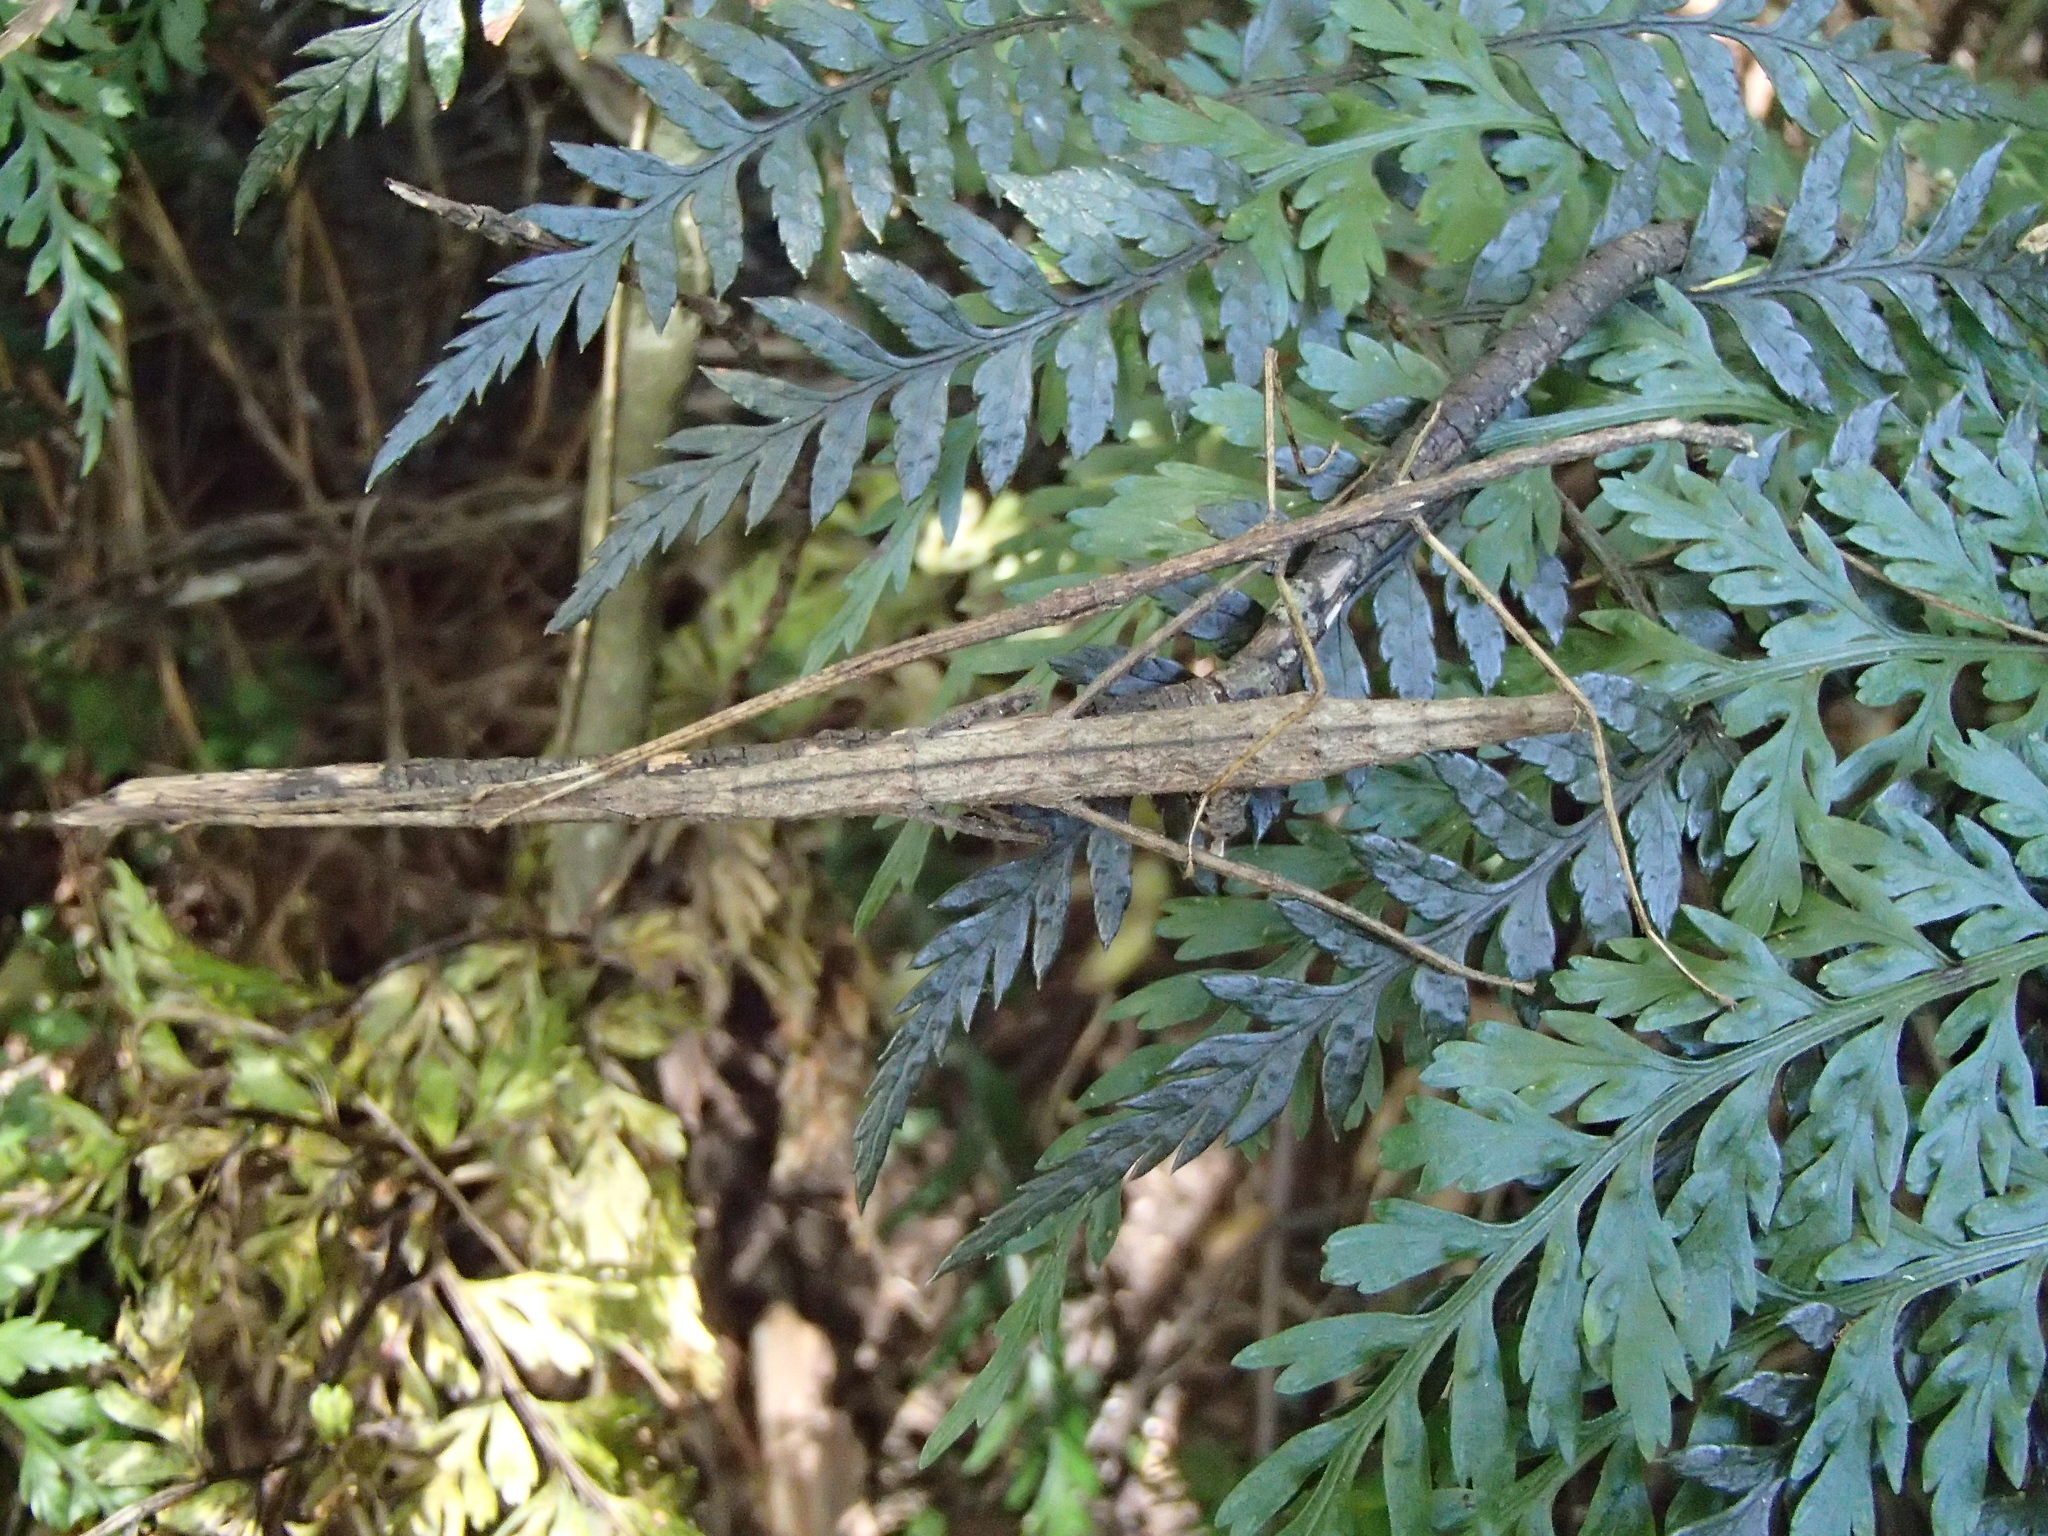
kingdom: Animalia
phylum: Arthropoda
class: Insecta
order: Phasmida
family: Phasmatidae
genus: Tectarchus
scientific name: Tectarchus salebrosus
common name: Lesser rough-skinned stick insect
